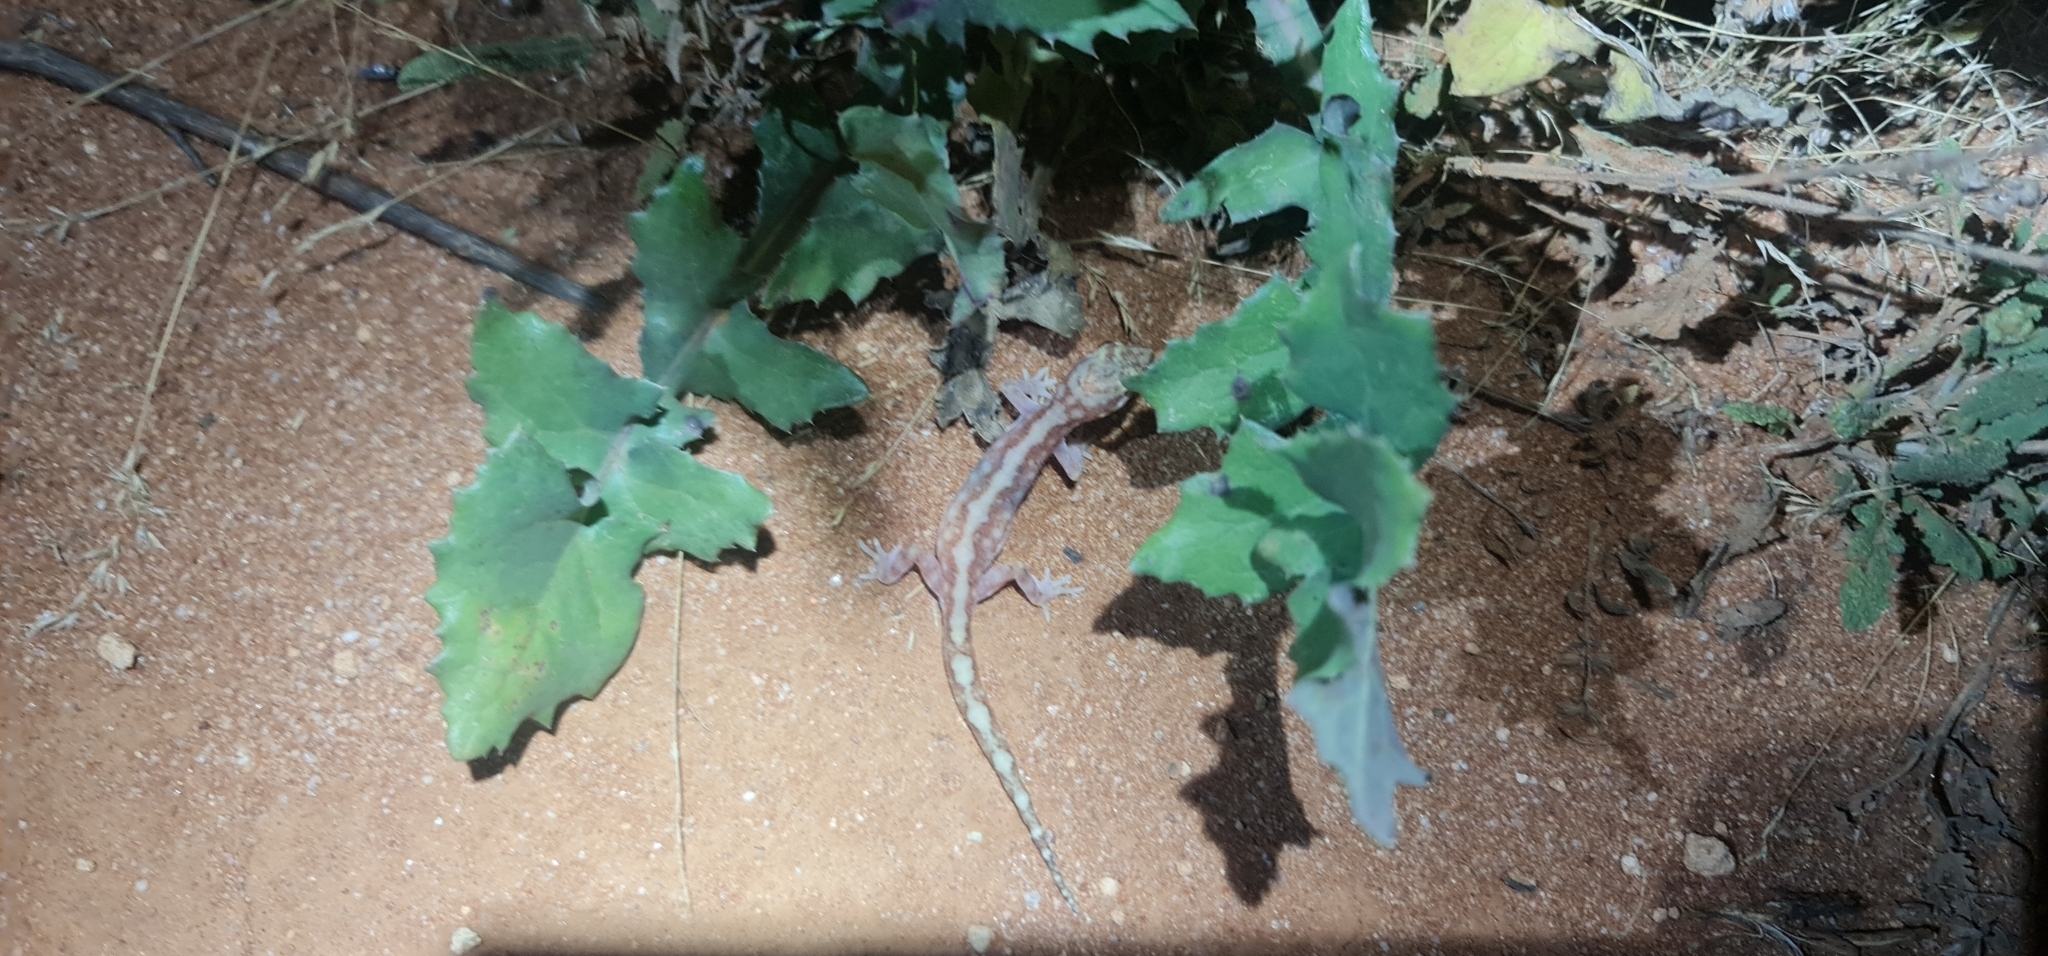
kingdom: Animalia
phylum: Chordata
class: Squamata
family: Diplodactylidae
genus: Lucasium
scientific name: Lucasium damaeum
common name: Beaded gecko
